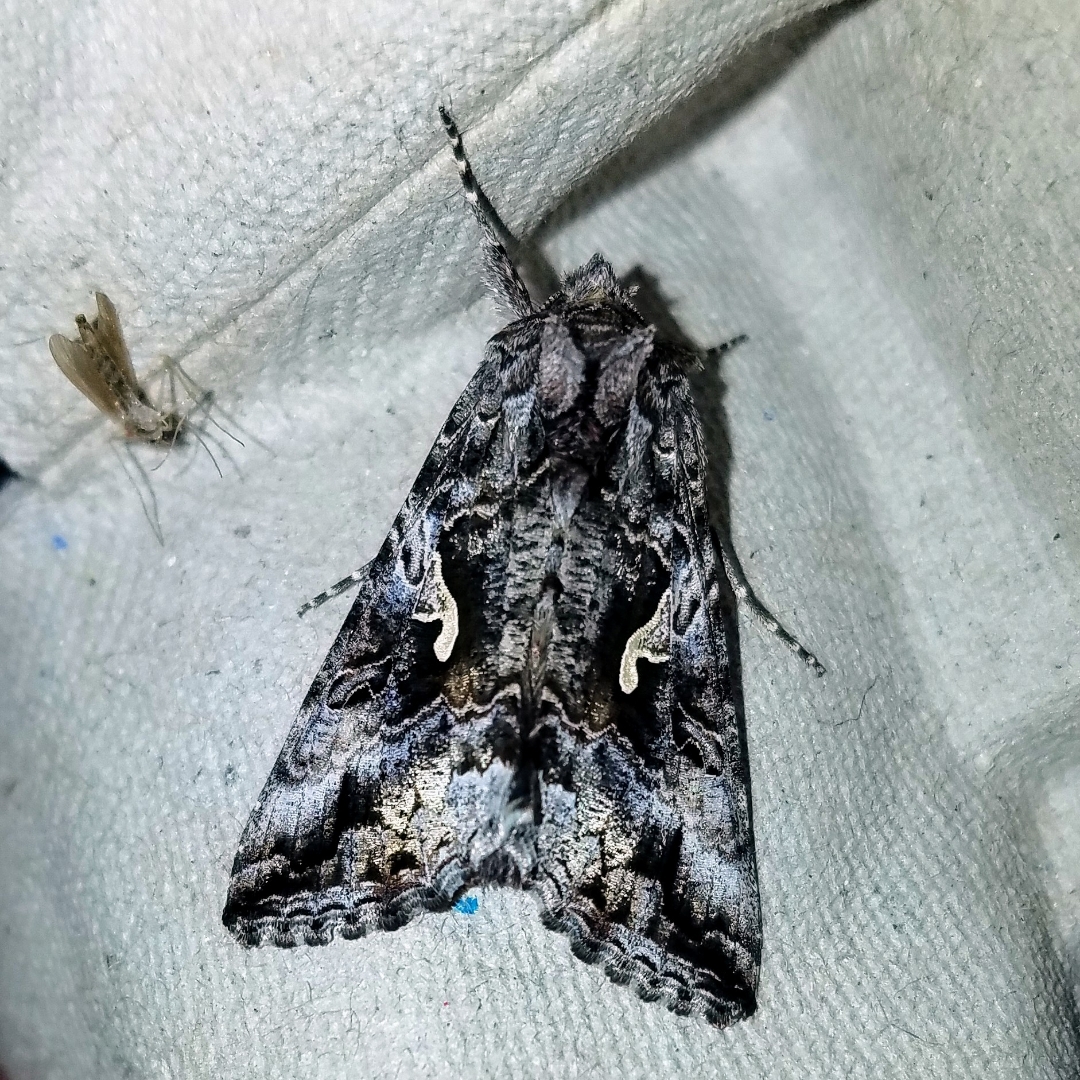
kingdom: Animalia
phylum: Arthropoda
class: Insecta
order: Lepidoptera
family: Noctuidae
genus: Autographa
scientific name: Autographa californica
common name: Alfalfa looper
